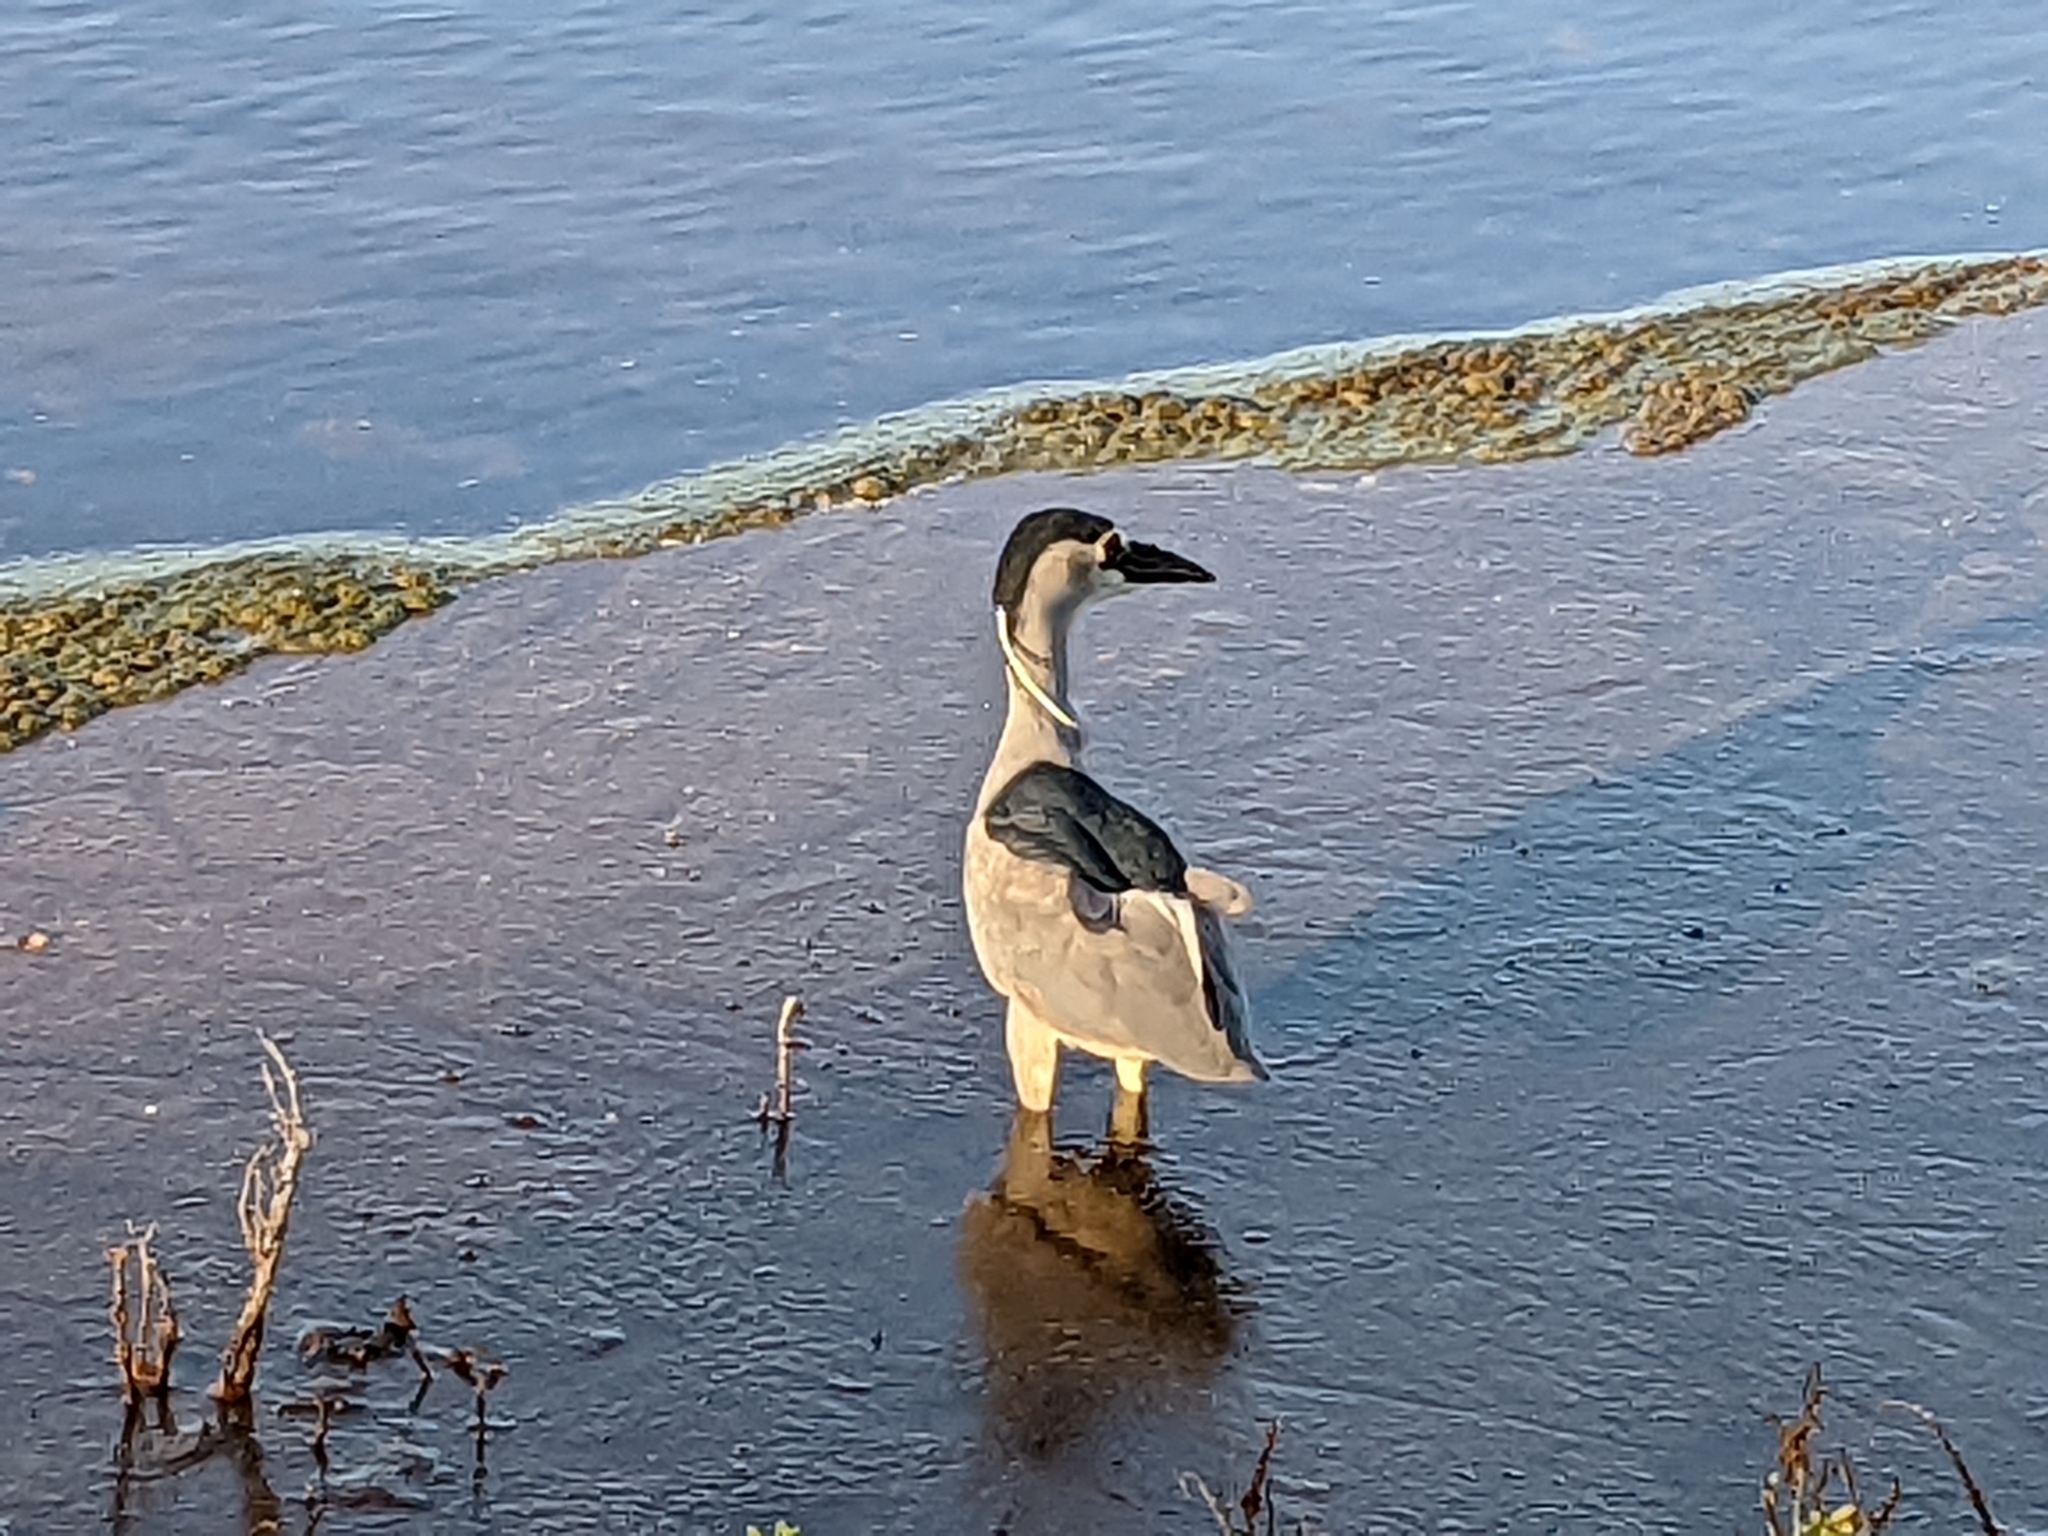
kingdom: Animalia
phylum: Chordata
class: Aves
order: Pelecaniformes
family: Ardeidae
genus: Nycticorax
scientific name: Nycticorax nycticorax
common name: Black-crowned night heron
